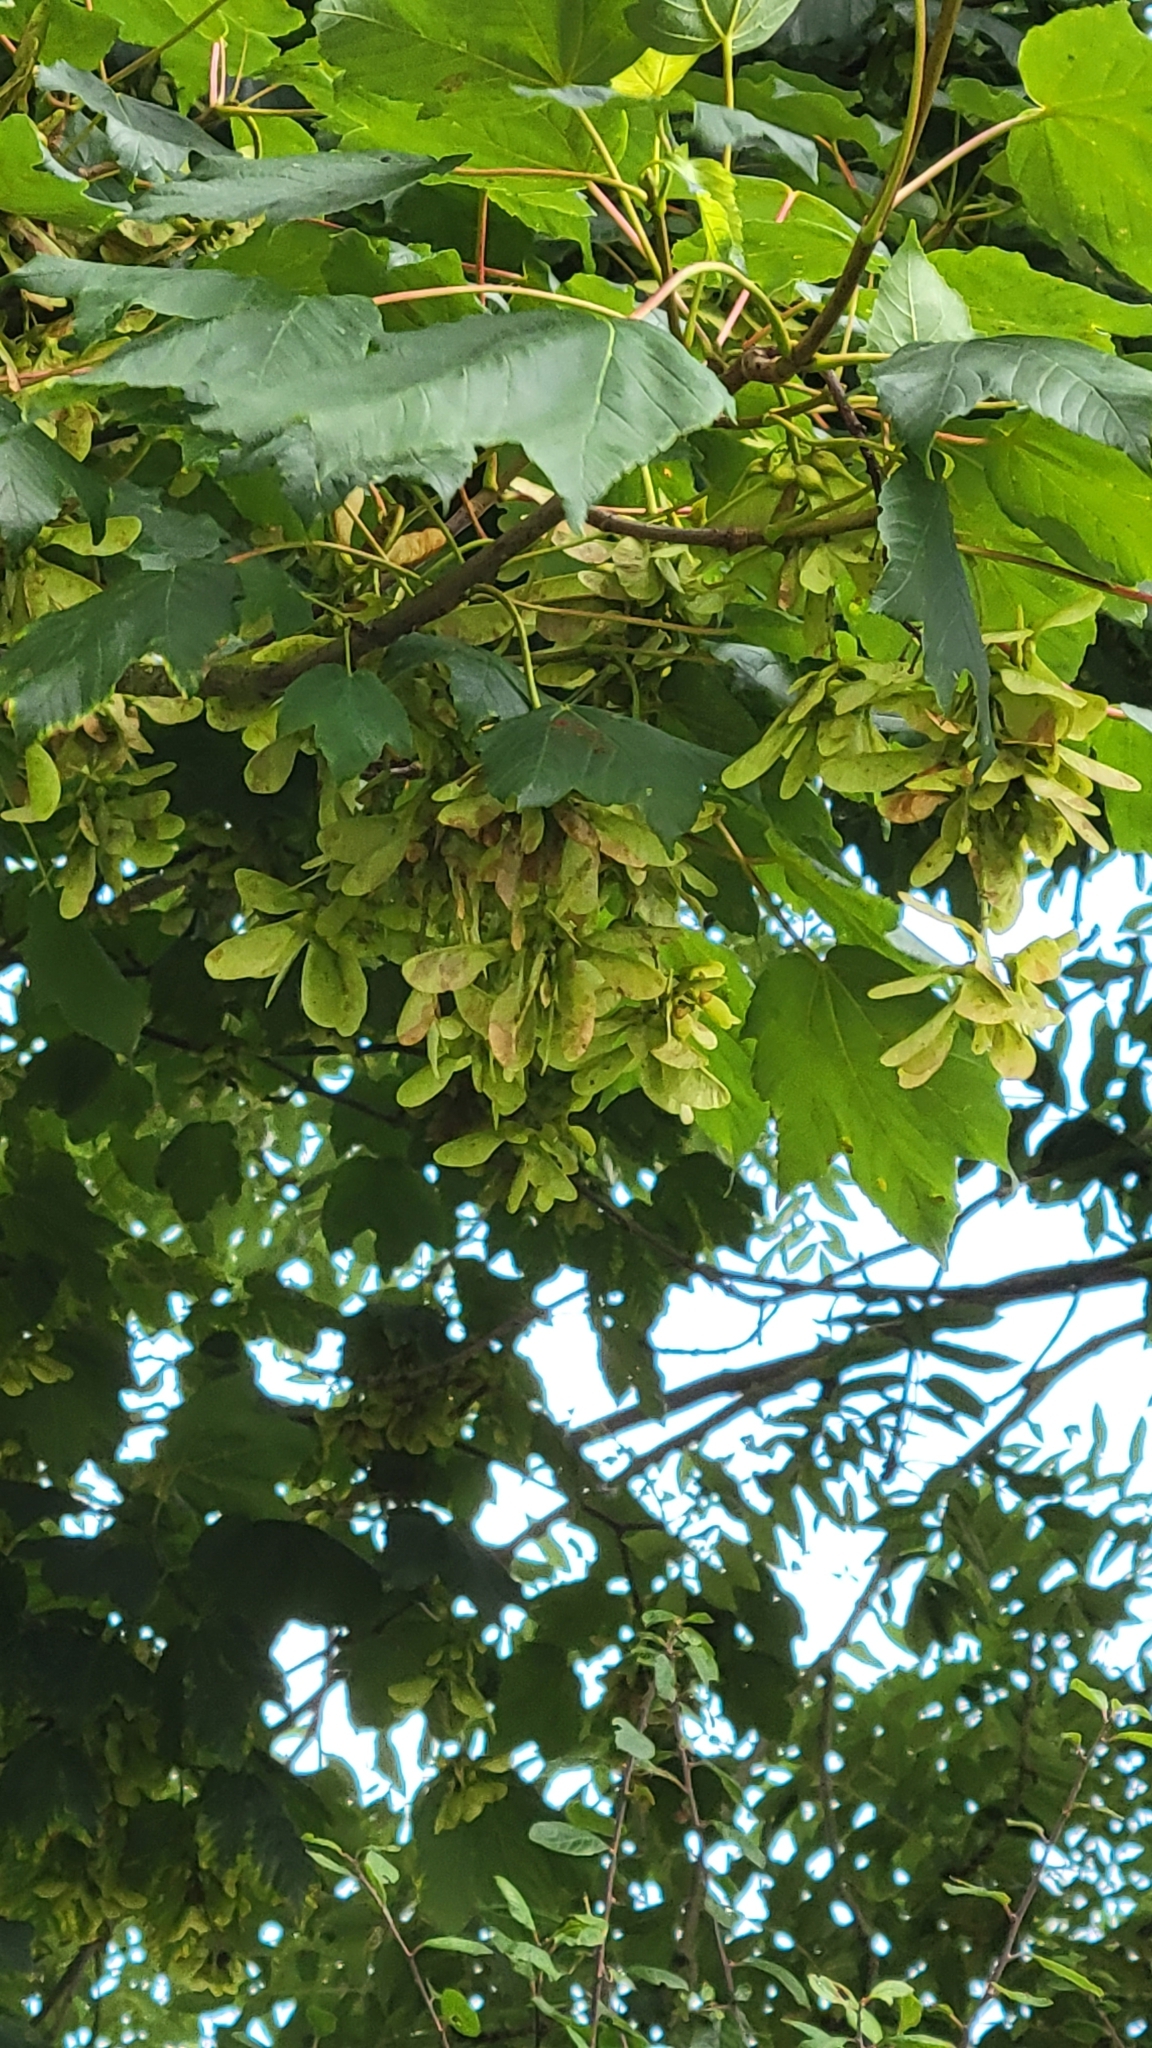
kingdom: Plantae
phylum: Tracheophyta
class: Magnoliopsida
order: Sapindales
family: Sapindaceae
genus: Acer
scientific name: Acer pseudoplatanus
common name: Sycamore
